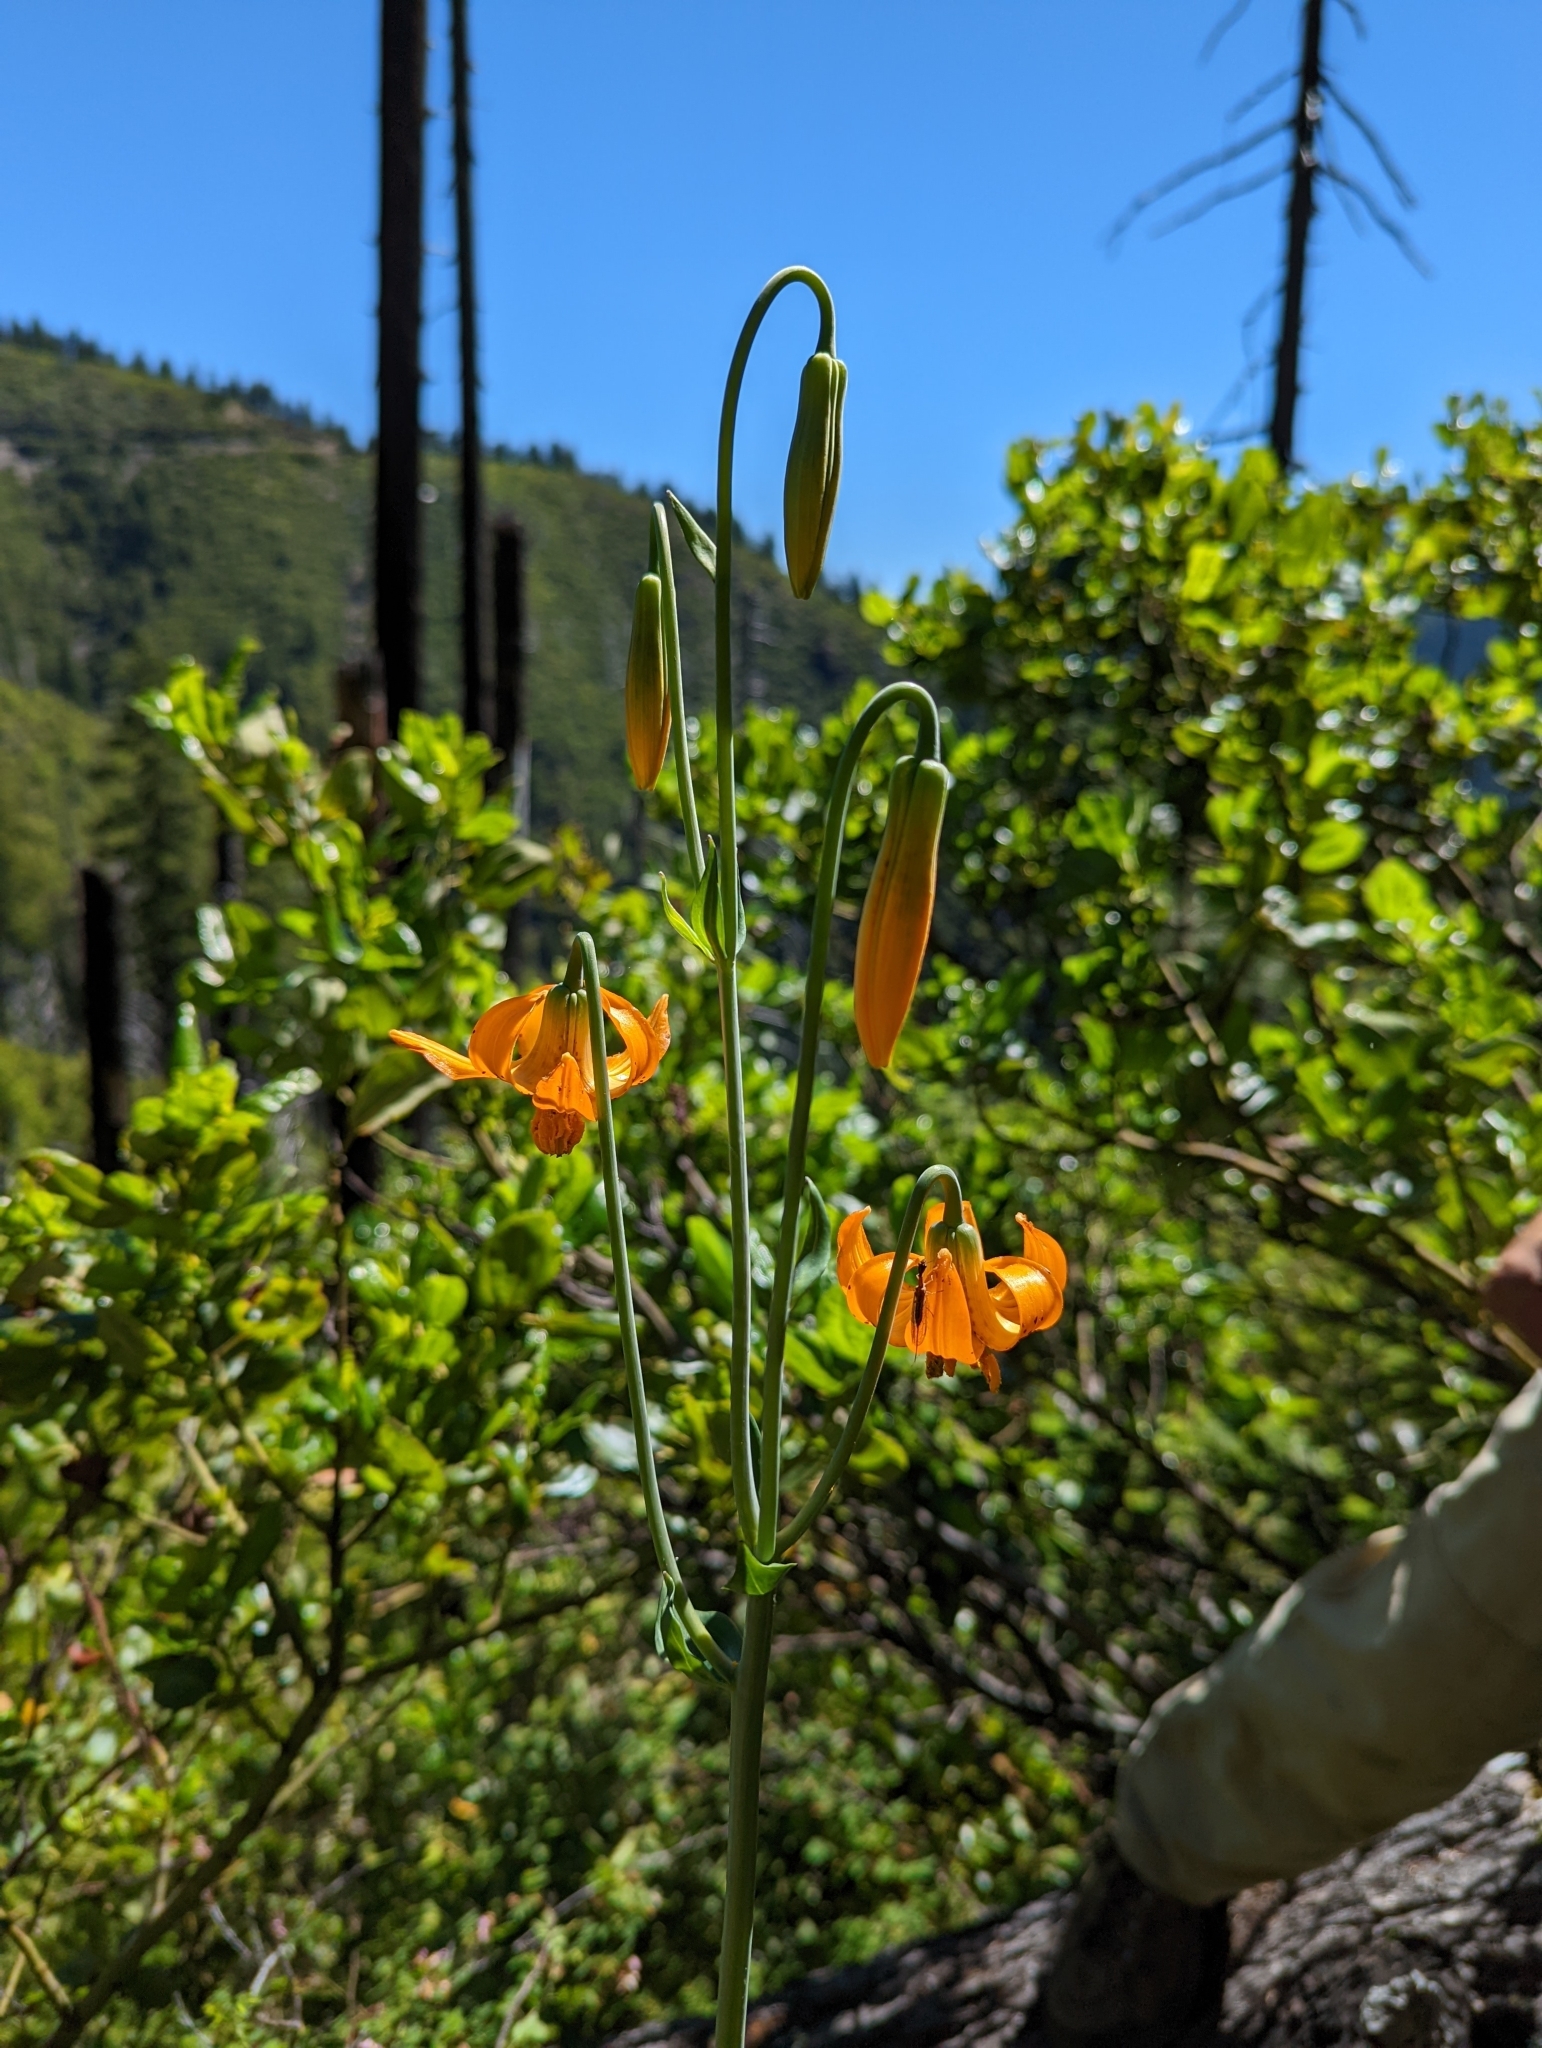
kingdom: Plantae
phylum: Tracheophyta
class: Liliopsida
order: Liliales
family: Liliaceae
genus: Lilium
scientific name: Lilium columbianum
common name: Columbia lily
